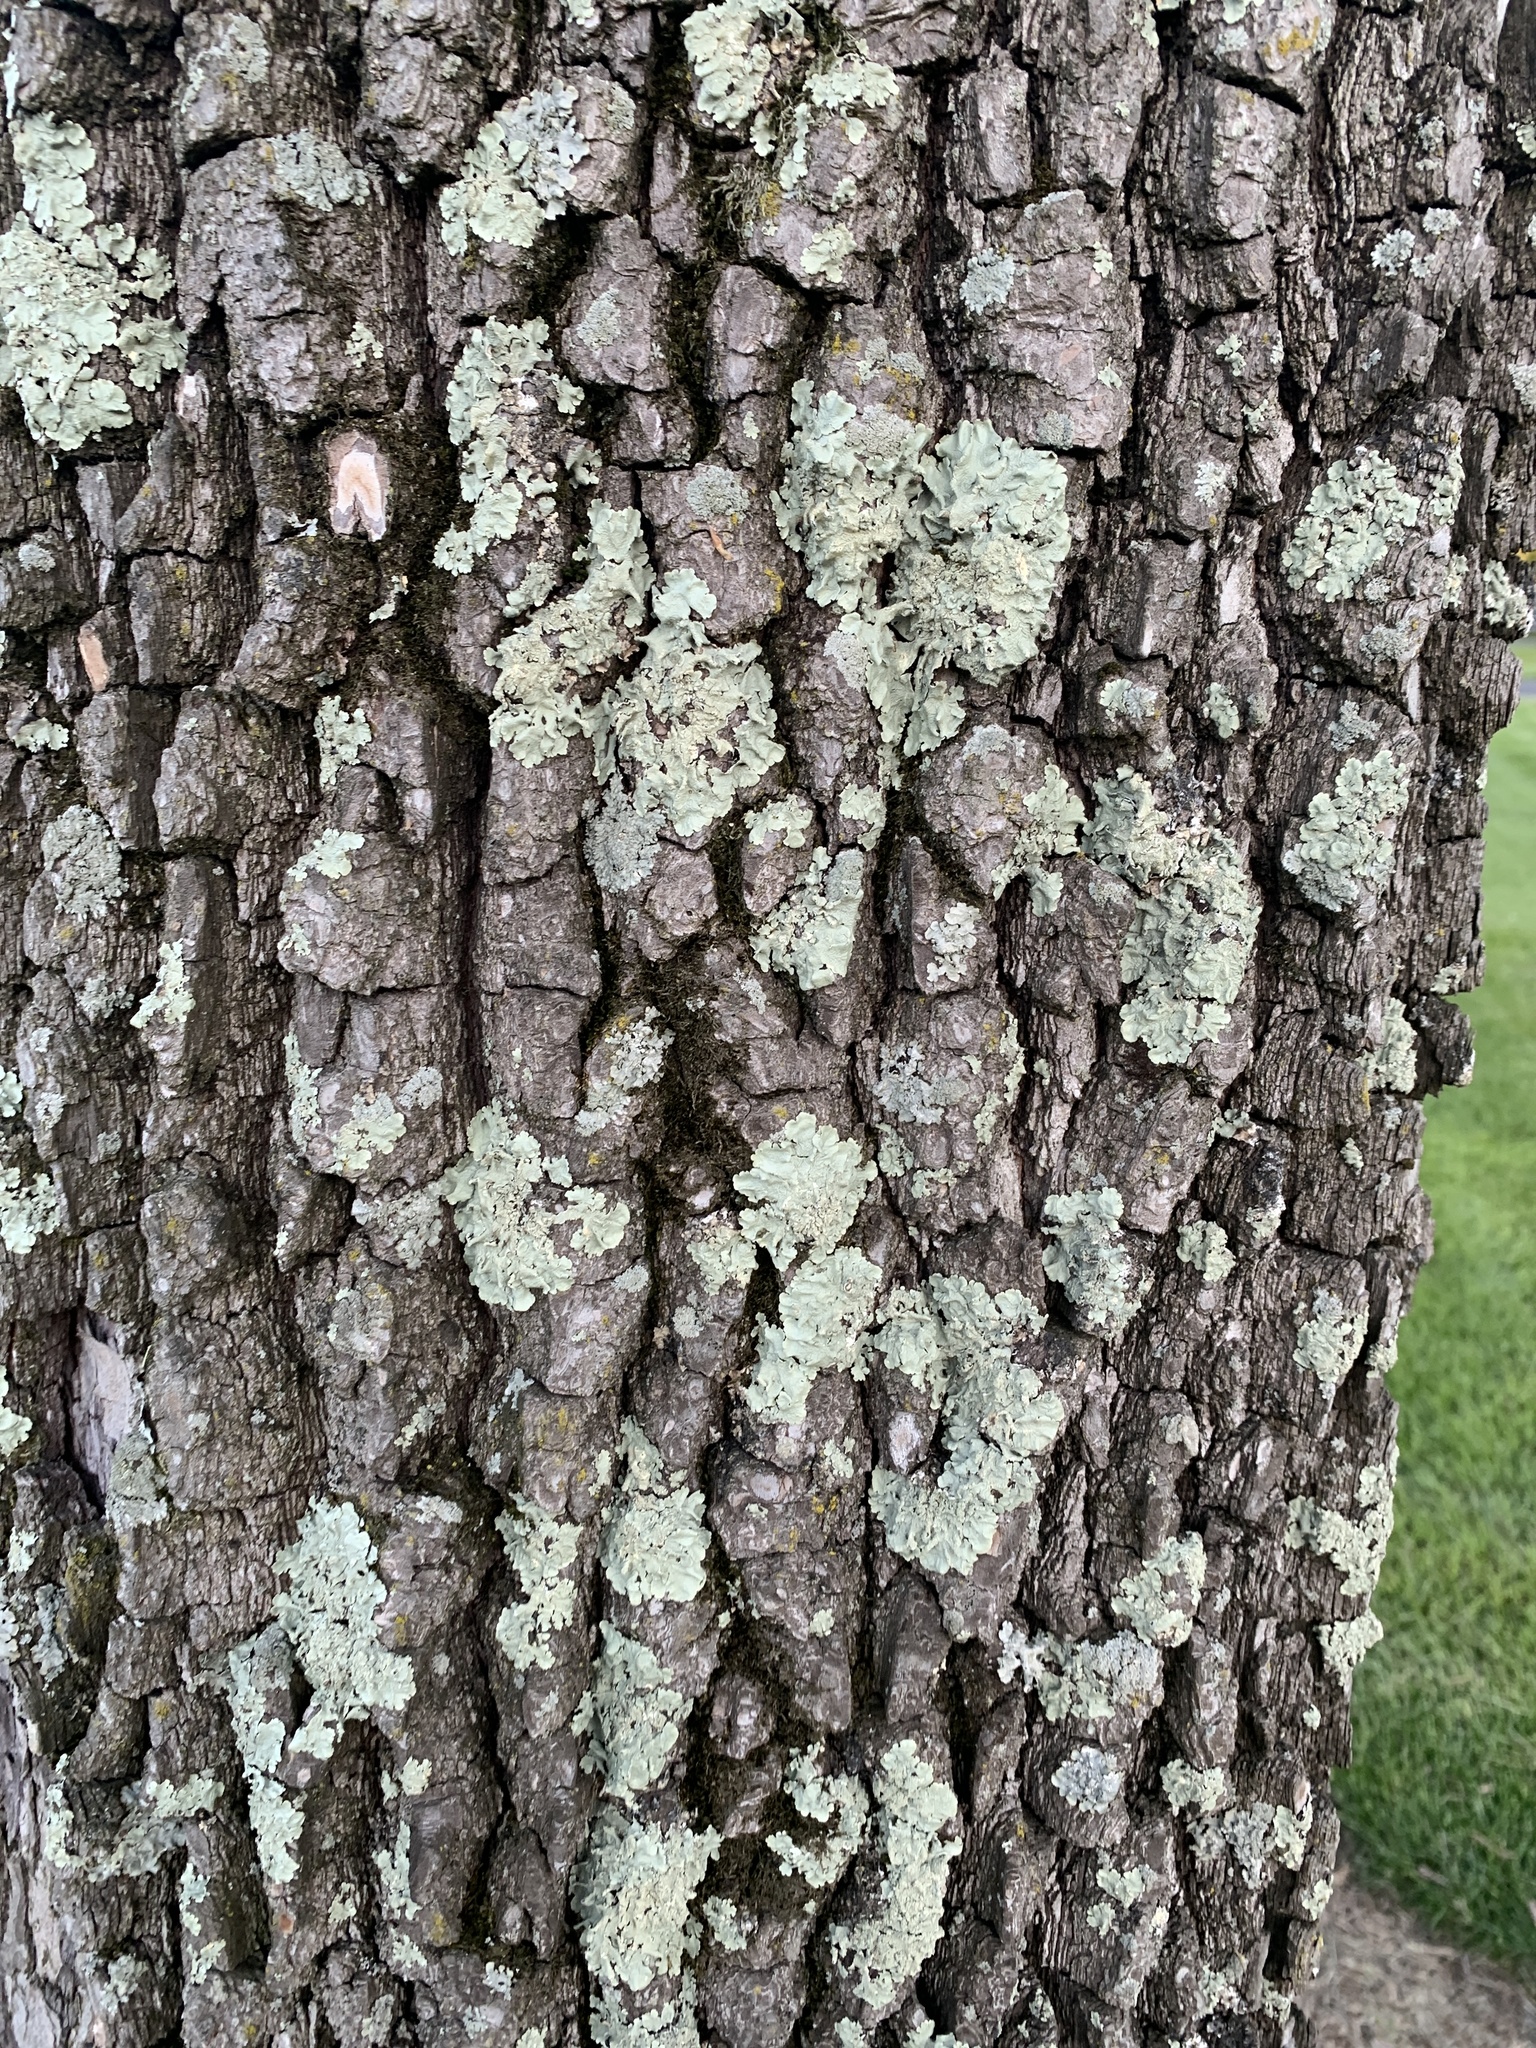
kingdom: Plantae
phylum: Tracheophyta
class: Magnoliopsida
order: Ericales
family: Ebenaceae
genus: Diospyros
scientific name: Diospyros virginiana
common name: Persimmon
